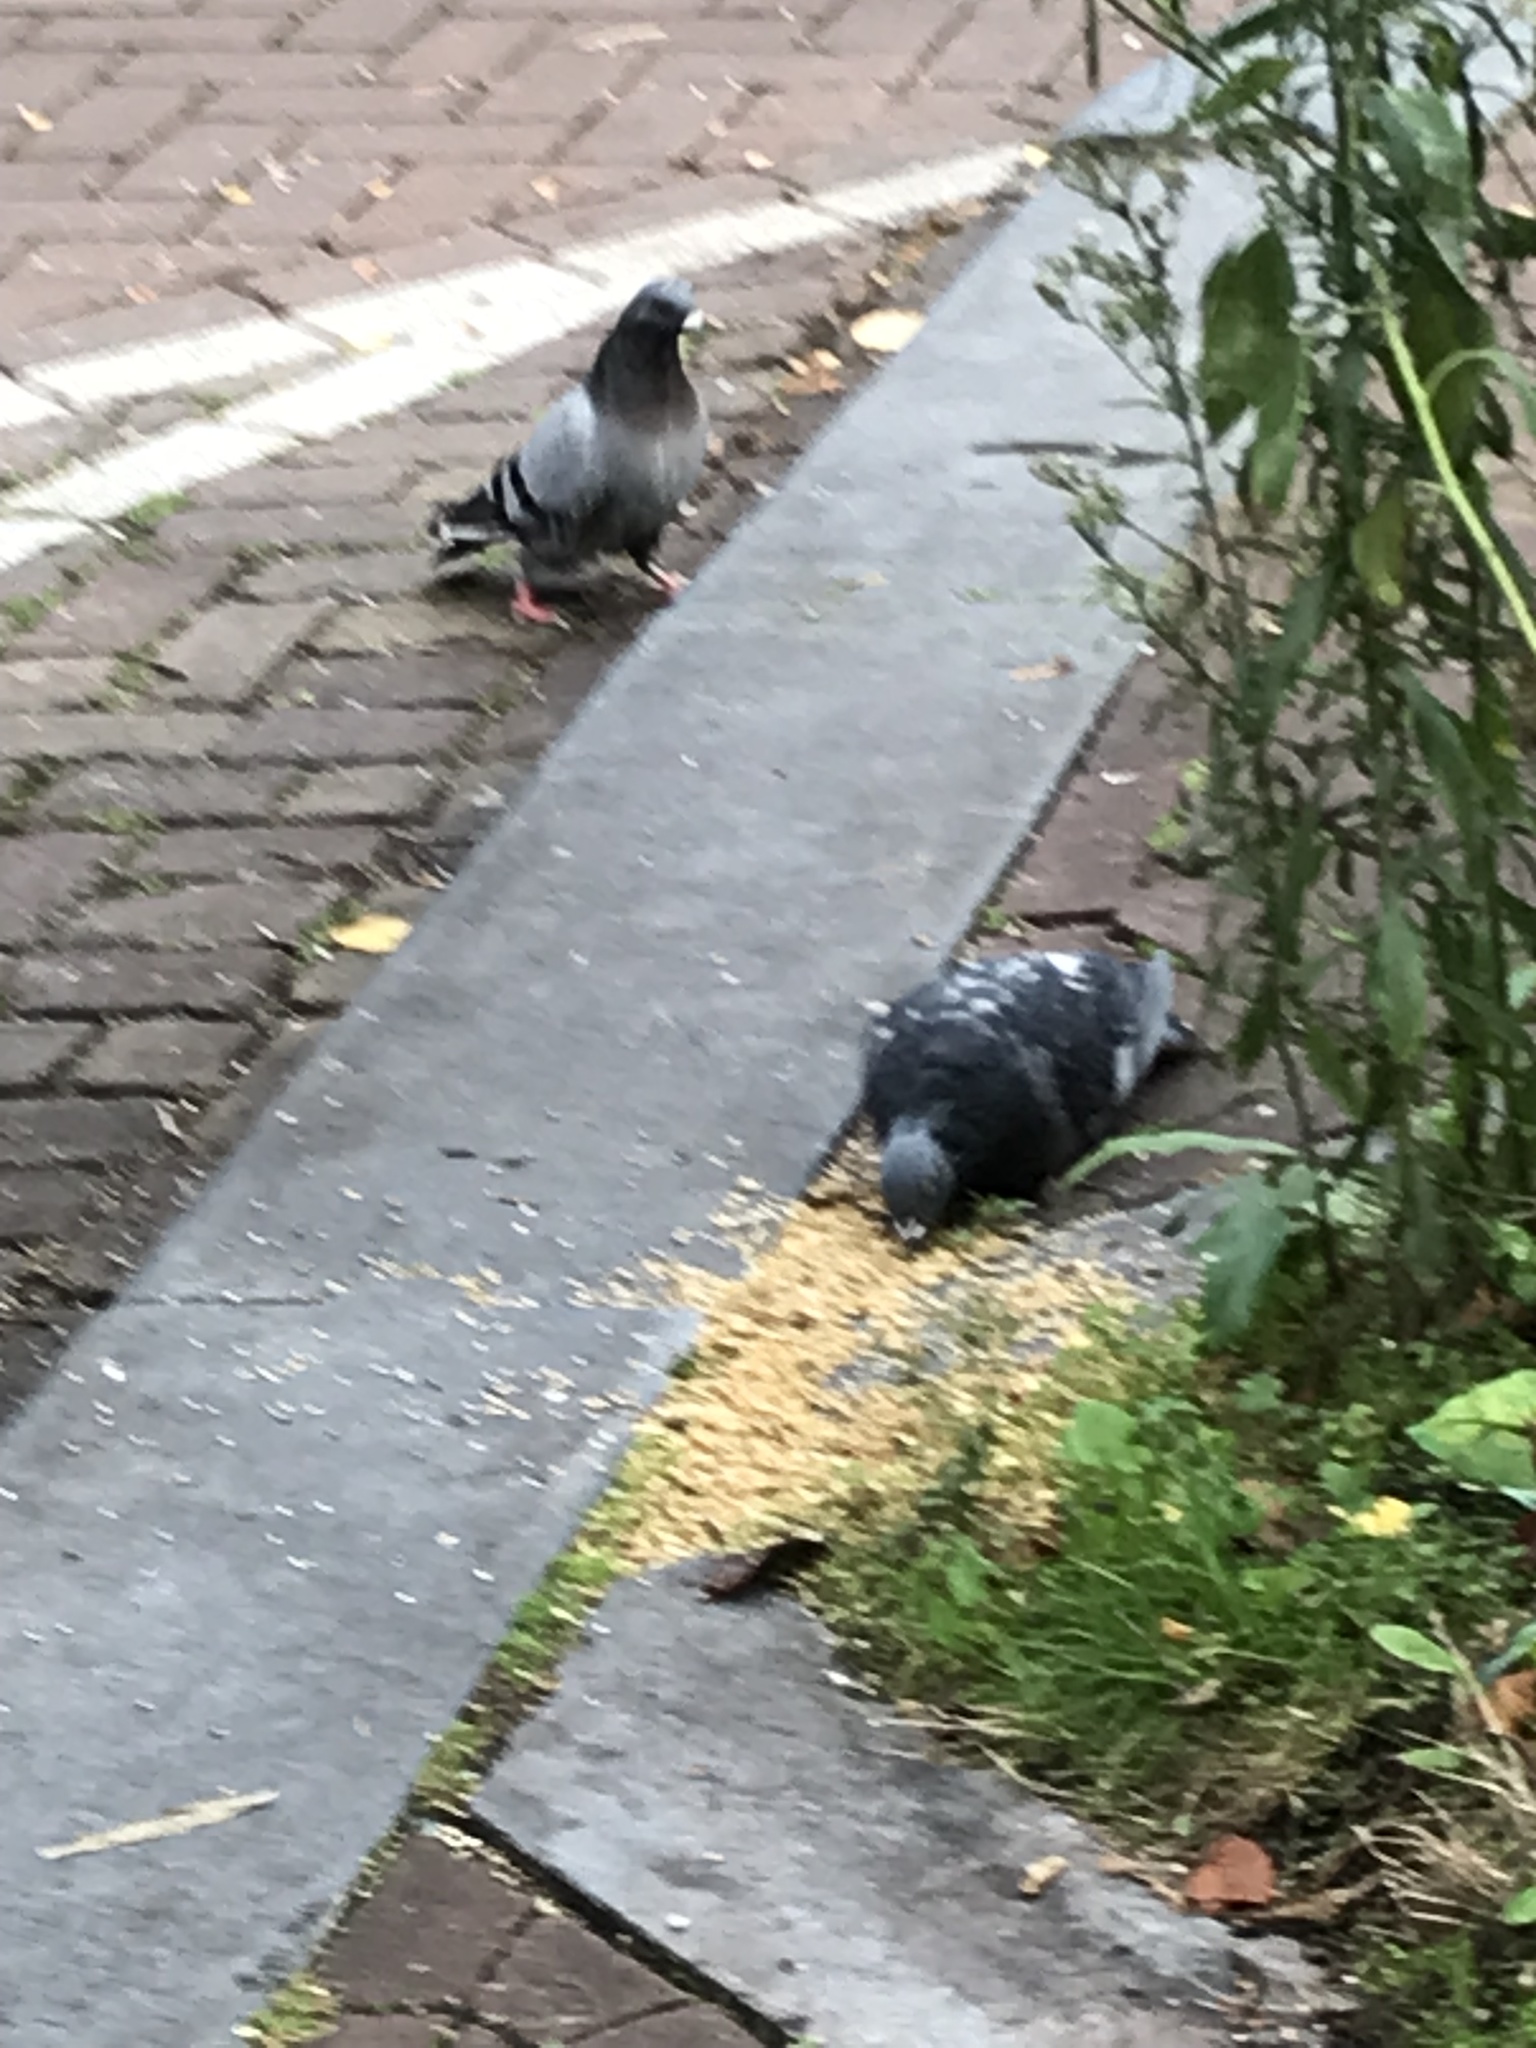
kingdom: Animalia
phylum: Chordata
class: Aves
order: Columbiformes
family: Columbidae
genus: Columba
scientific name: Columba livia
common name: Rock pigeon
